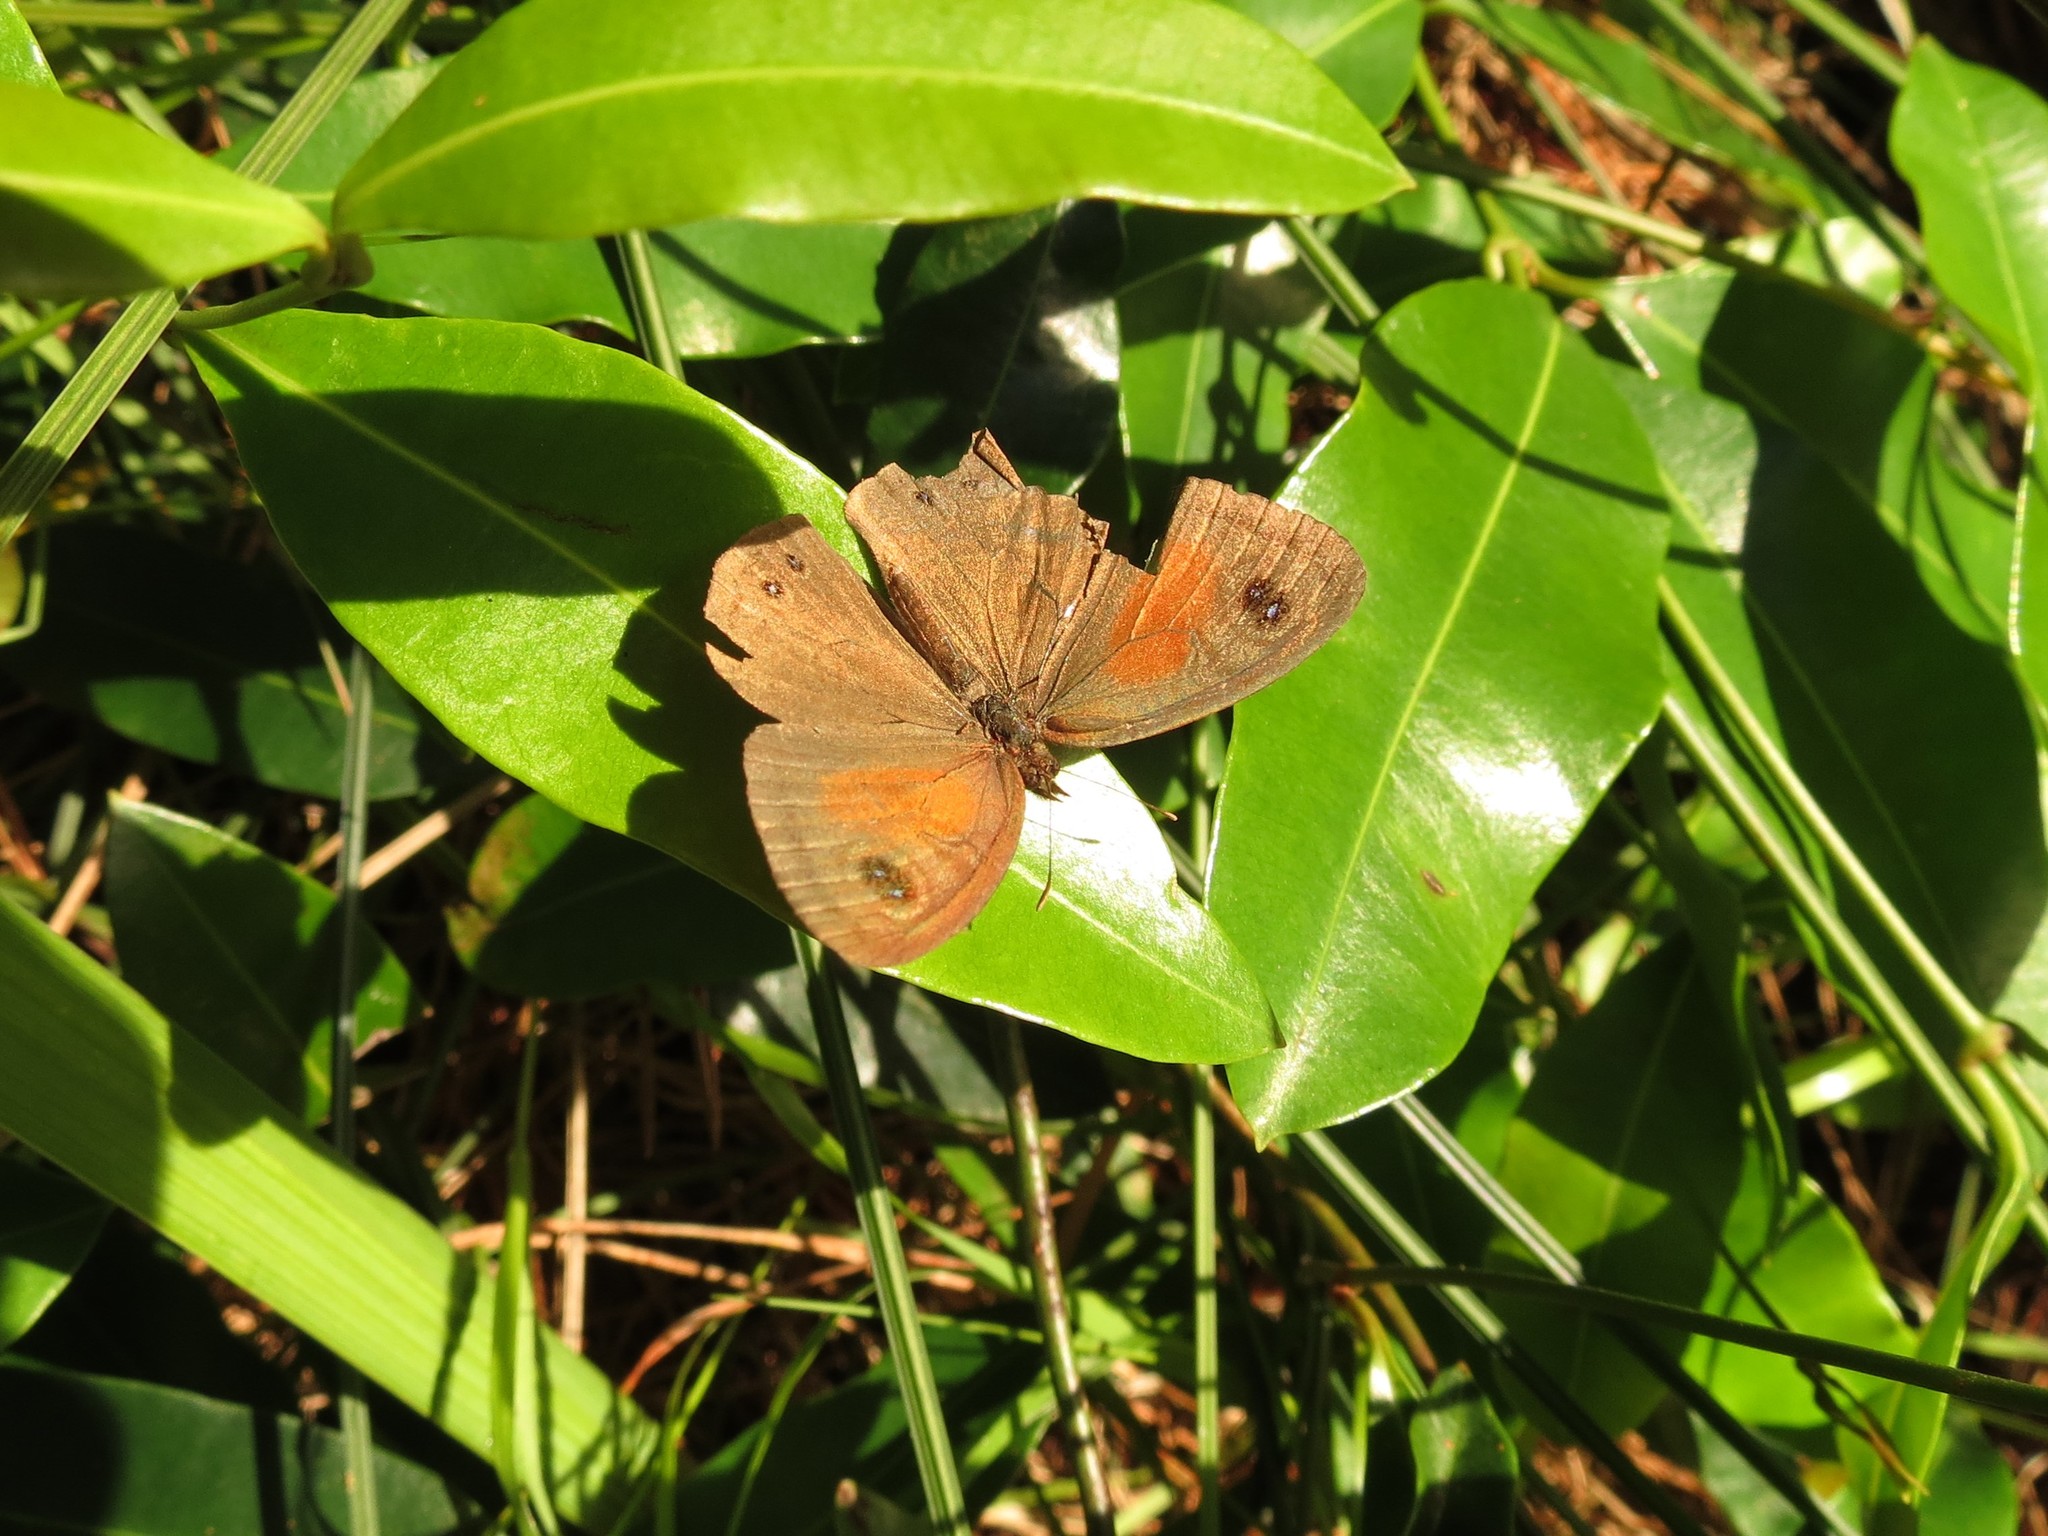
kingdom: Animalia
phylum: Arthropoda
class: Insecta
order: Lepidoptera
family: Nymphalidae
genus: Cassionympha
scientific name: Cassionympha cassius
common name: Rainforest brown
